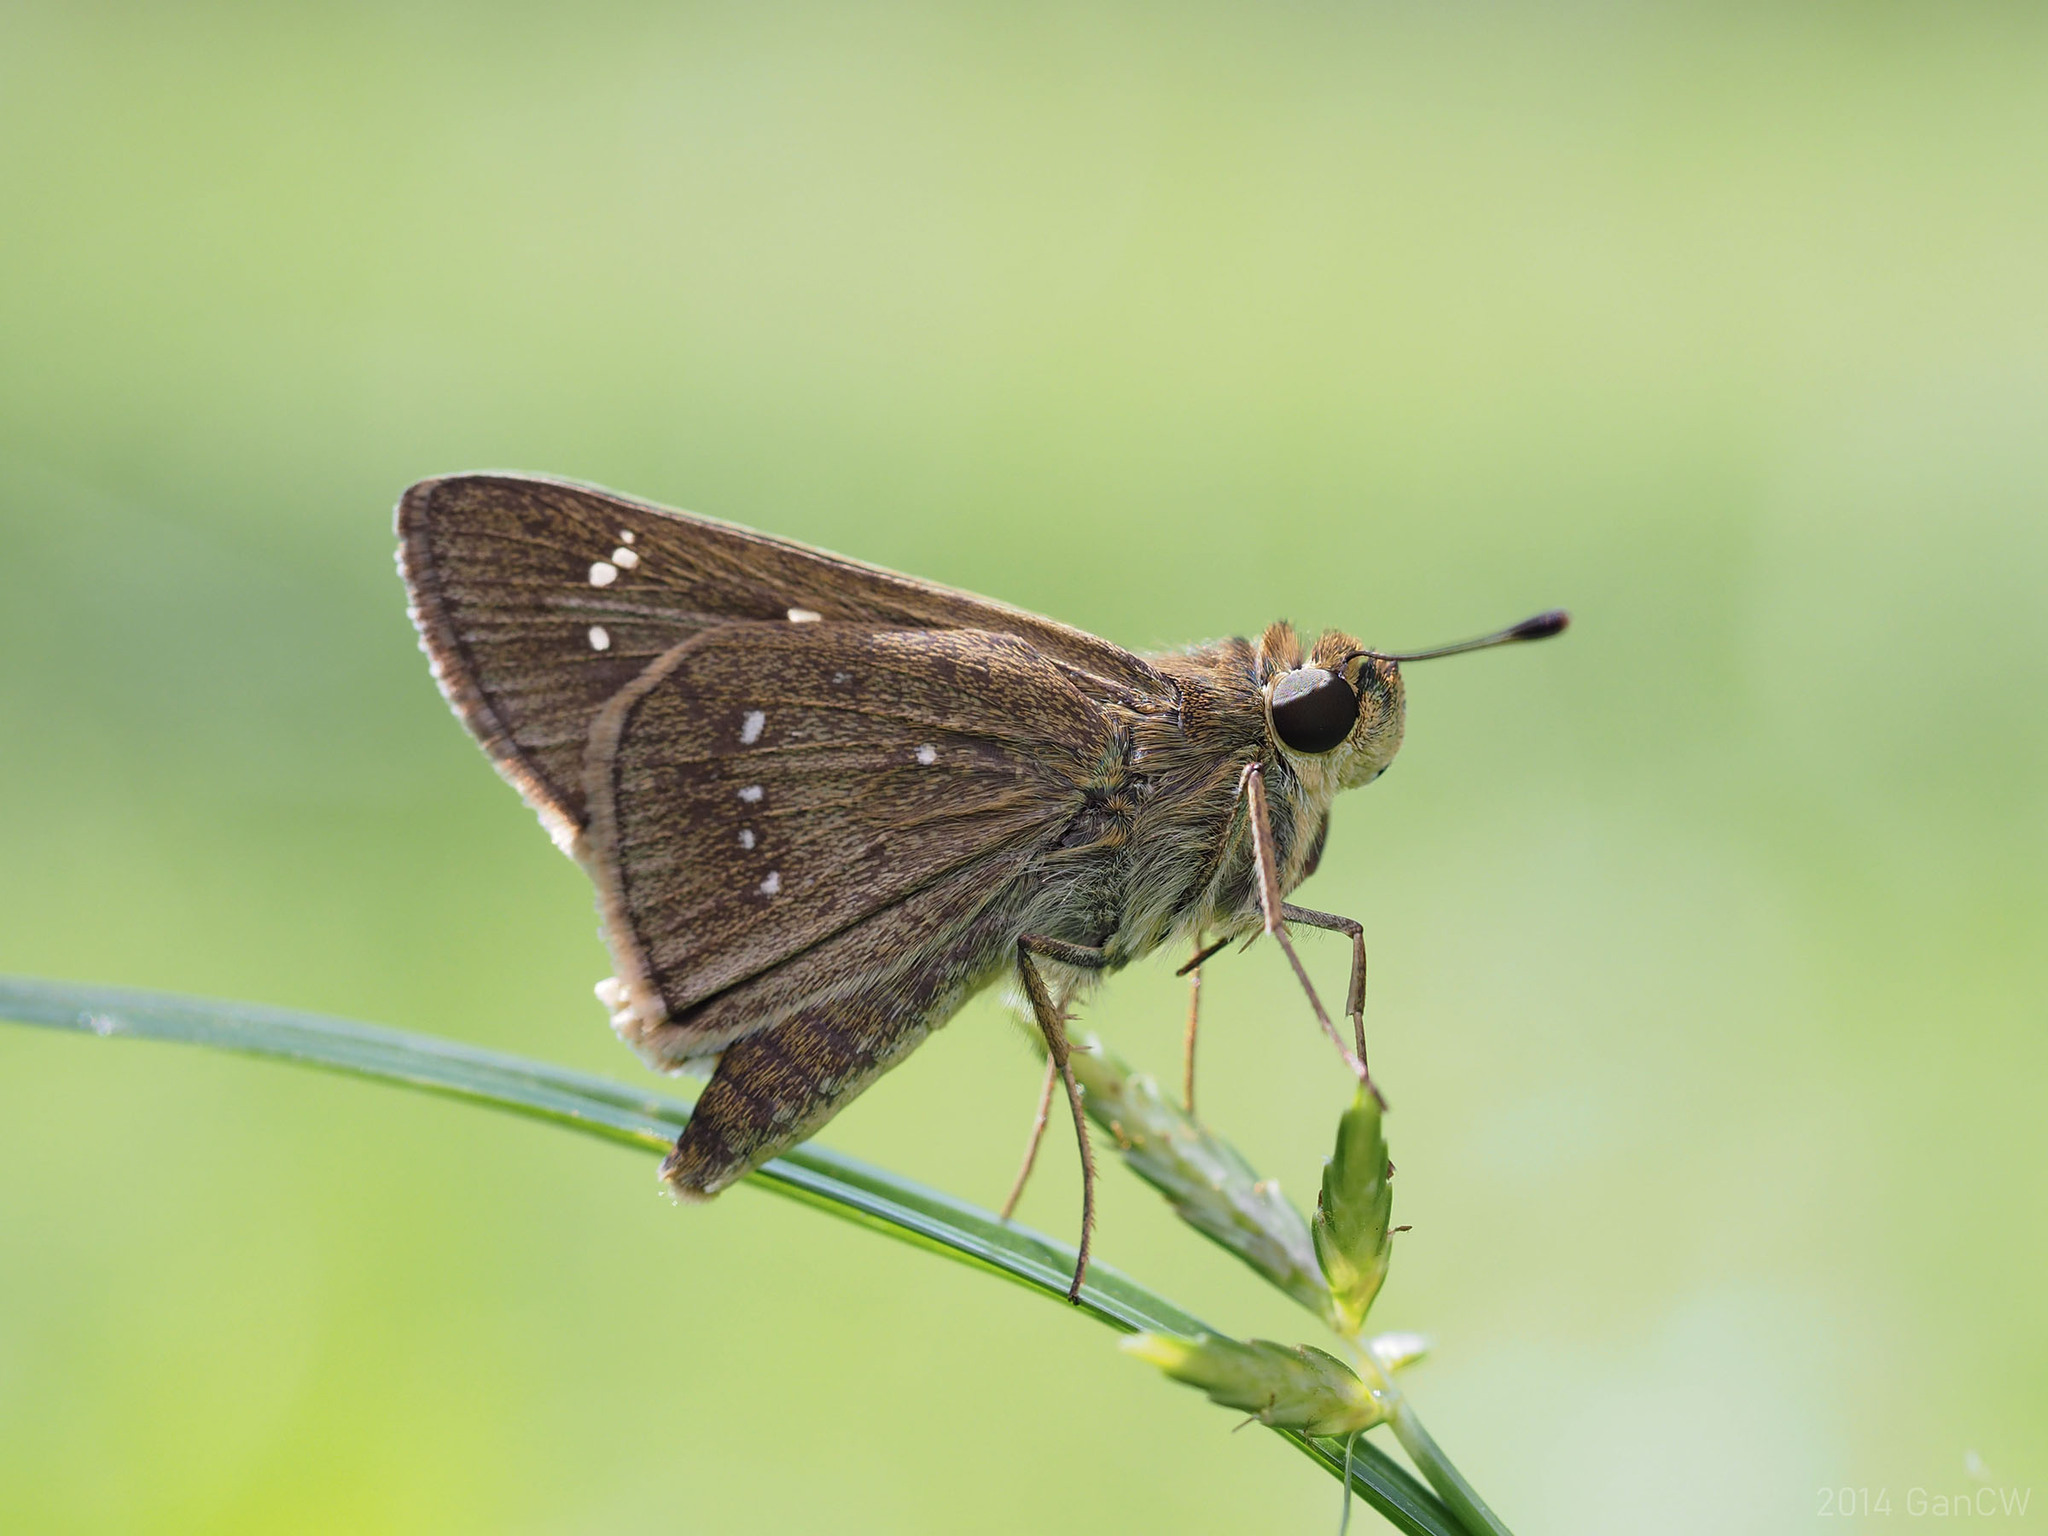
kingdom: Animalia
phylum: Arthropoda
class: Insecta
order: Lepidoptera
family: Hesperiidae
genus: Pelopidas
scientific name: Pelopidas mathias
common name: Black-branded swift
